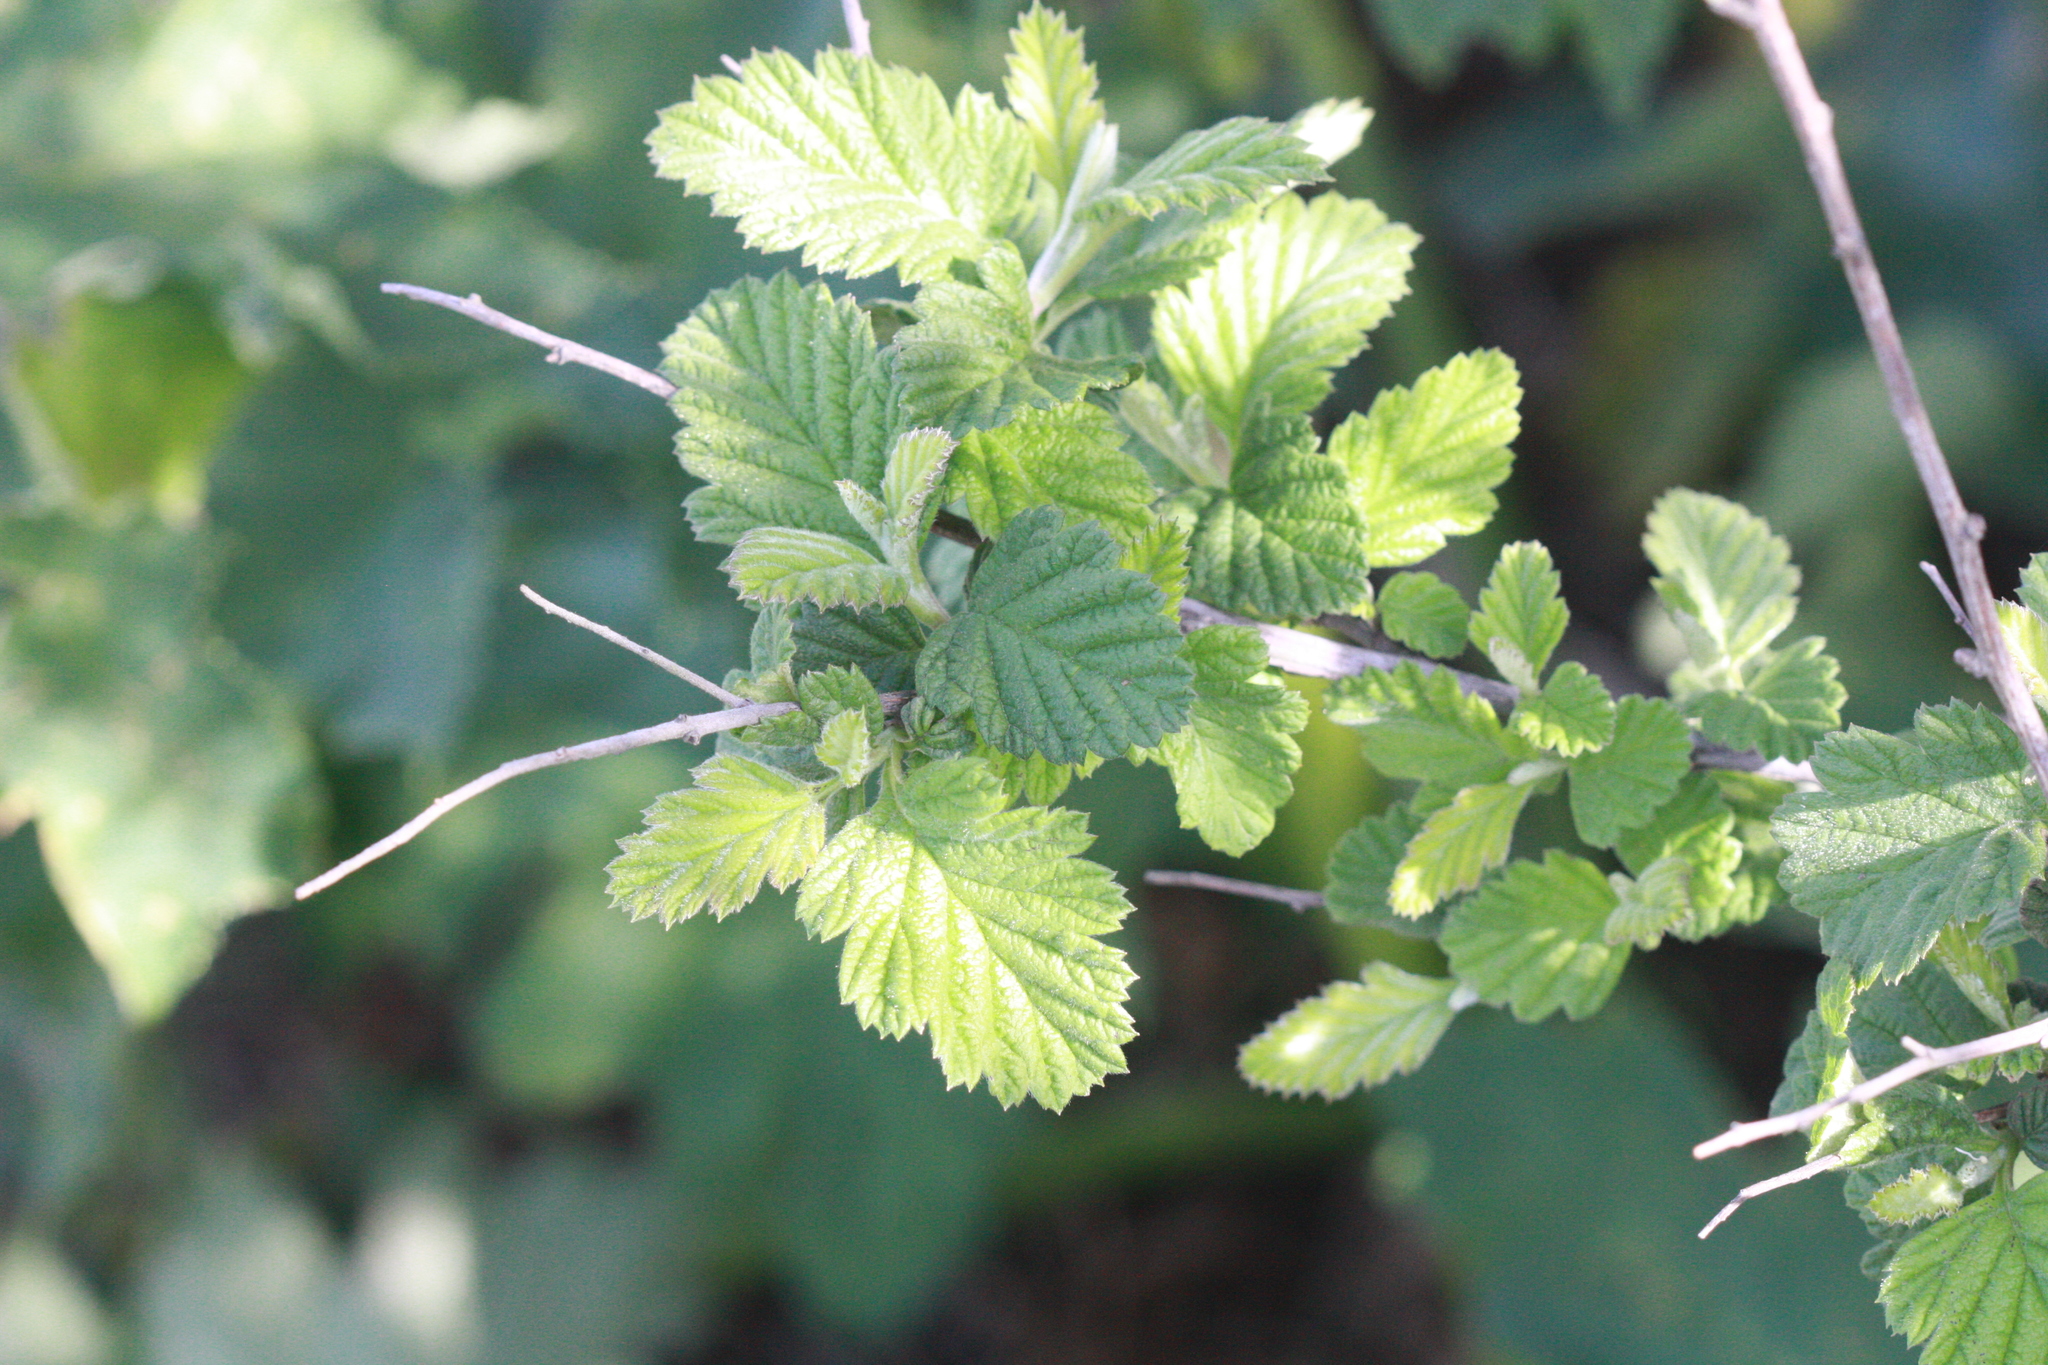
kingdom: Plantae
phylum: Tracheophyta
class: Magnoliopsida
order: Rosales
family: Rosaceae
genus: Holodiscus
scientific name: Holodiscus discolor
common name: Oceanspray
